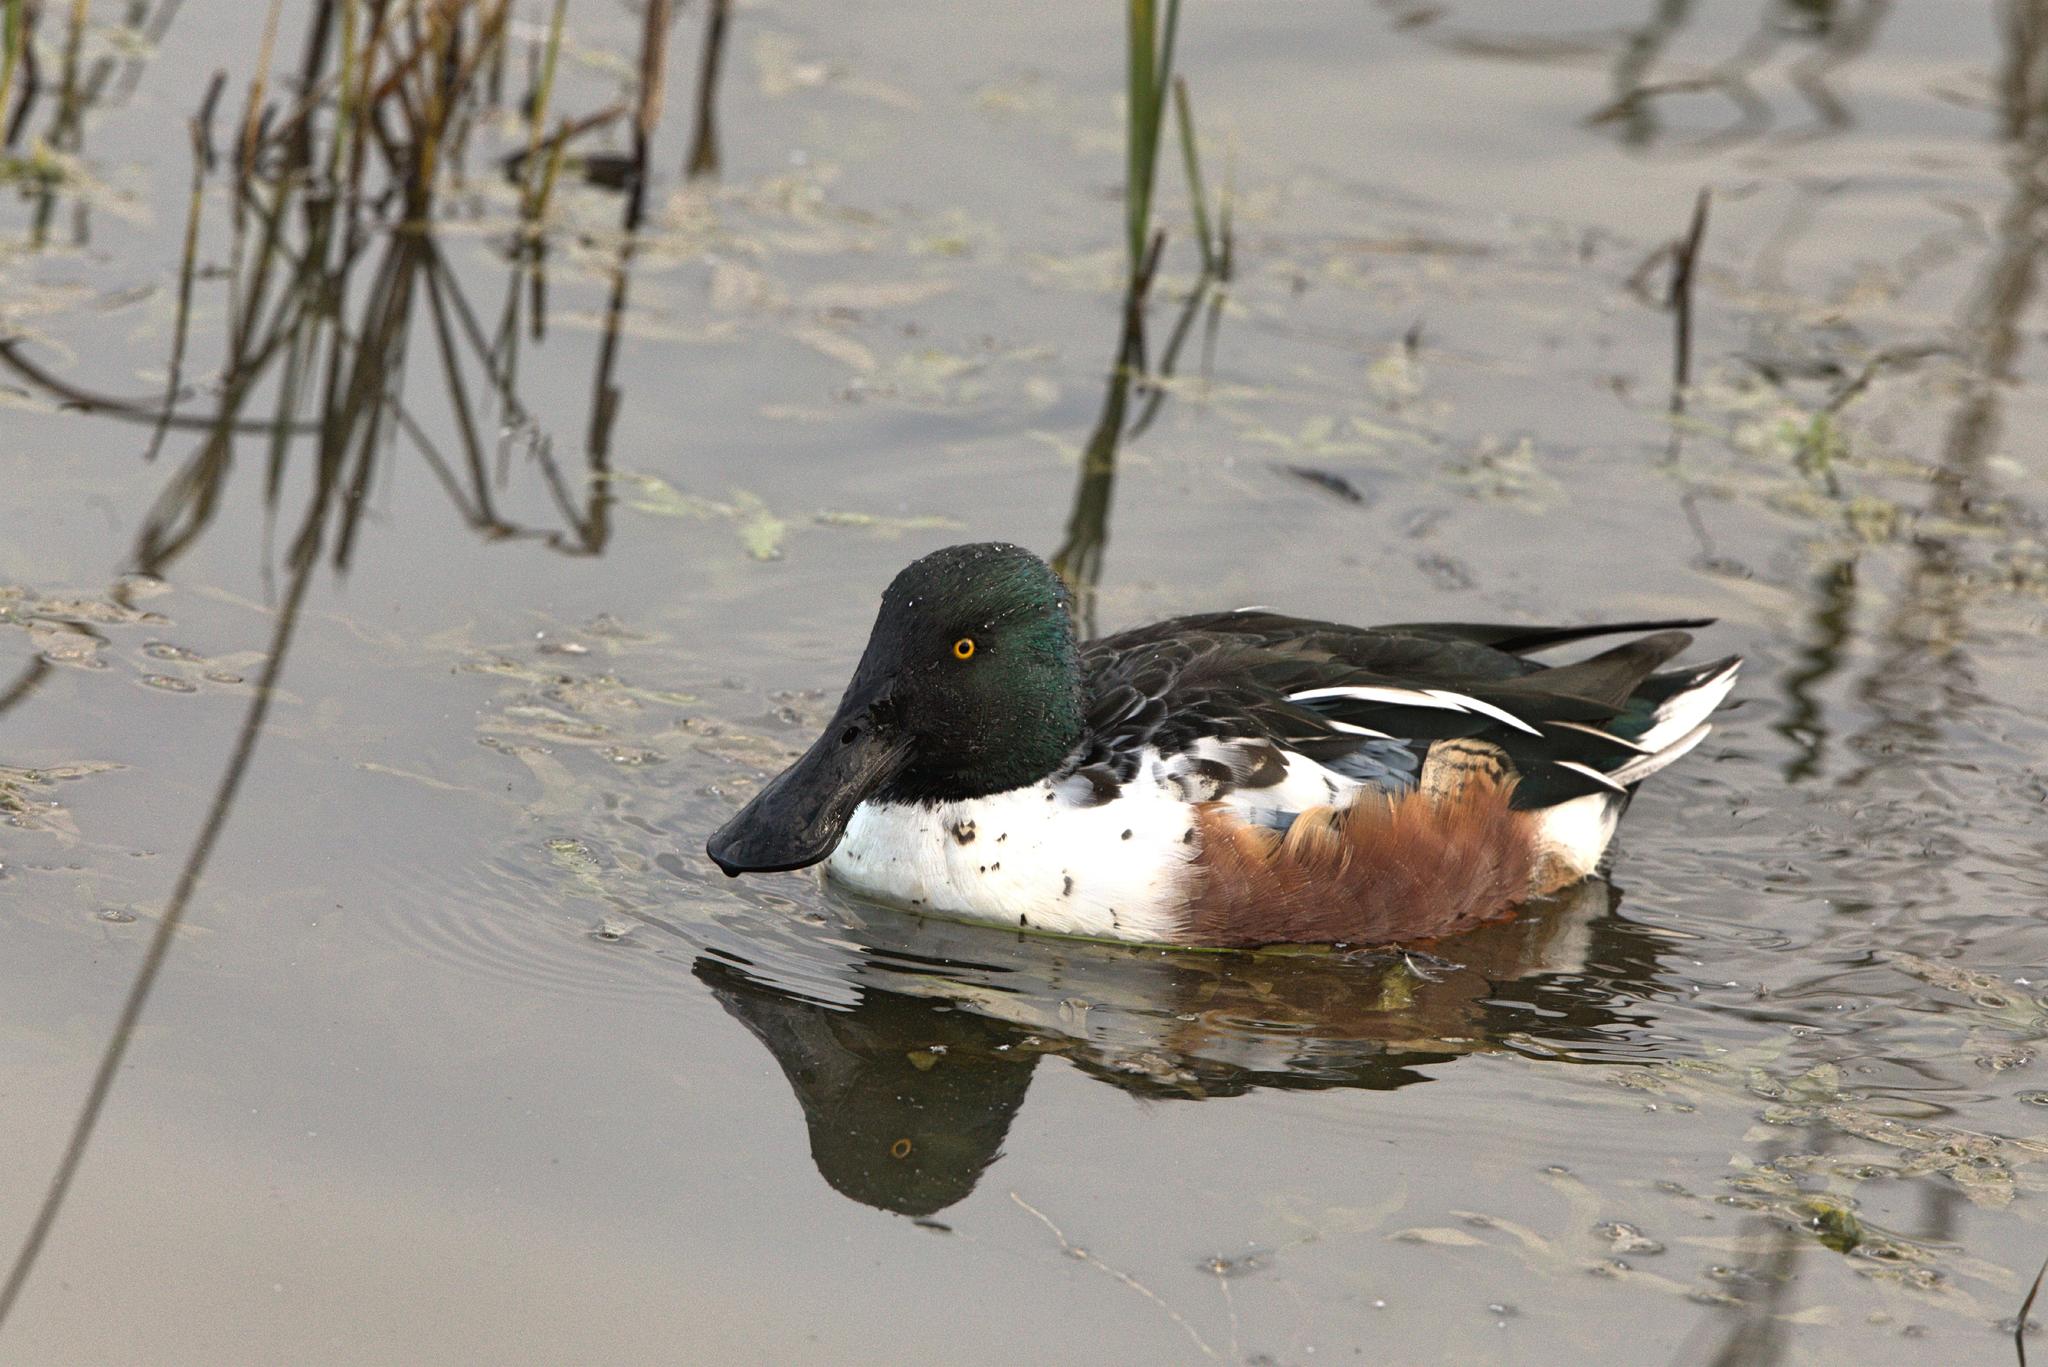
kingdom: Animalia
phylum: Chordata
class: Aves
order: Anseriformes
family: Anatidae
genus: Spatula
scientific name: Spatula clypeata
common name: Northern shoveler
